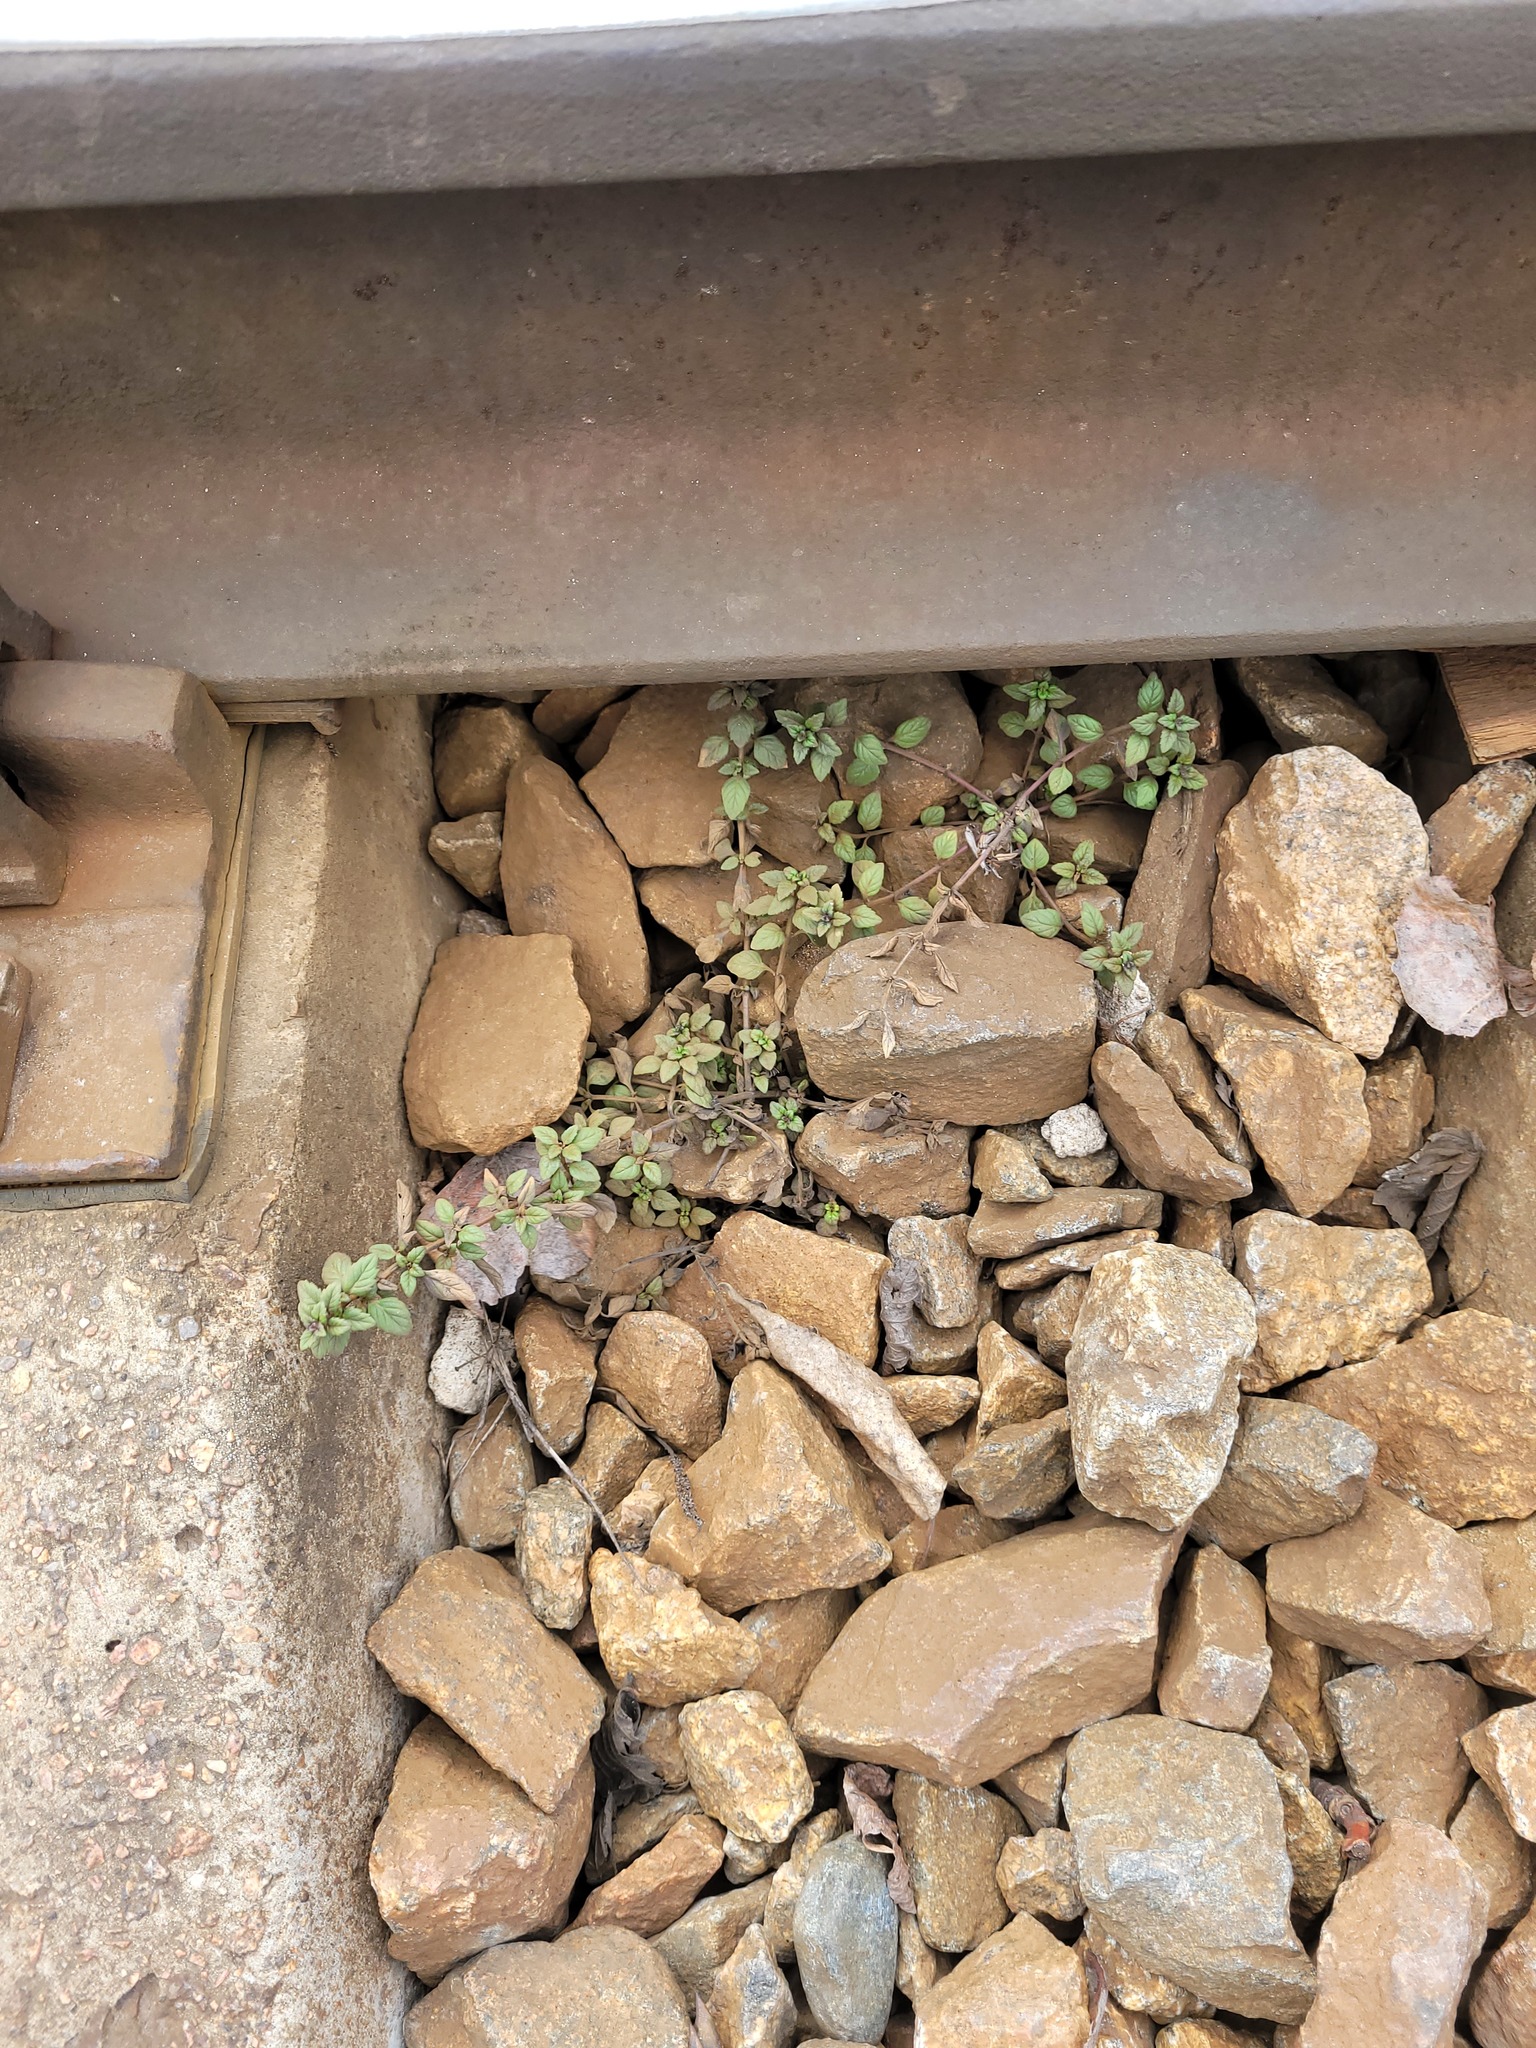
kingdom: Plantae
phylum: Tracheophyta
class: Magnoliopsida
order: Lamiales
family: Lamiaceae
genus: Clinopodium
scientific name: Clinopodium acinos
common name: Basil thyme
